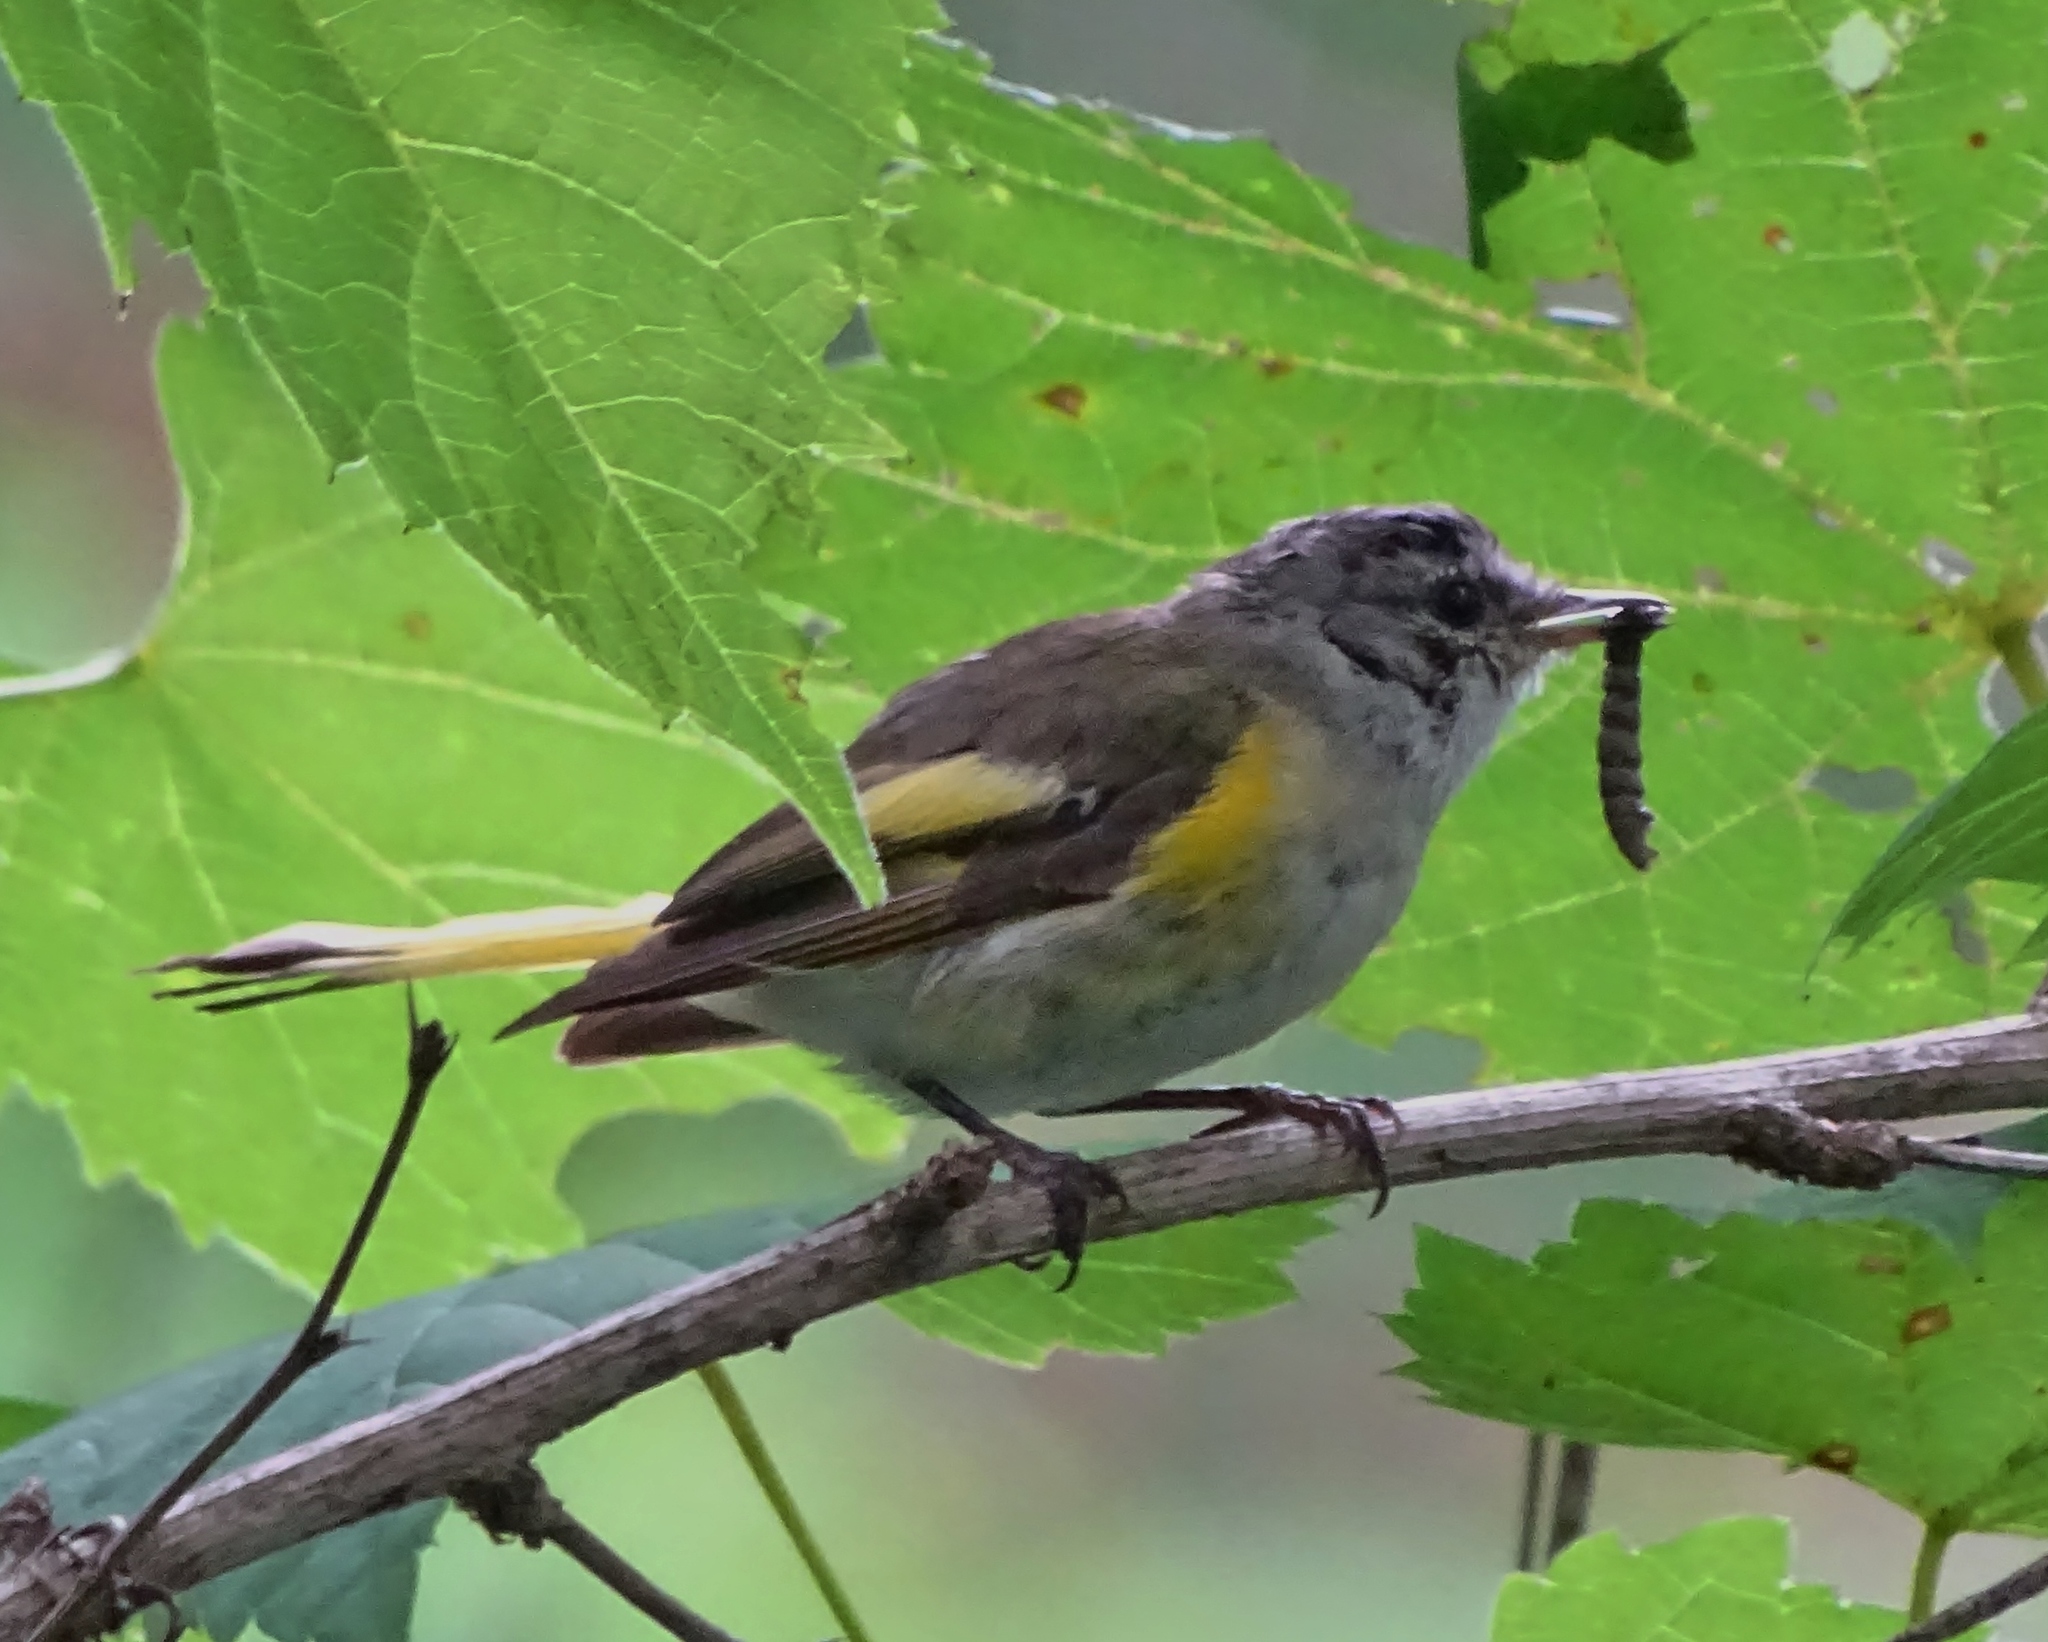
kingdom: Animalia
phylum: Chordata
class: Aves
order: Passeriformes
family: Parulidae
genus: Setophaga
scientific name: Setophaga ruticilla
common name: American redstart
